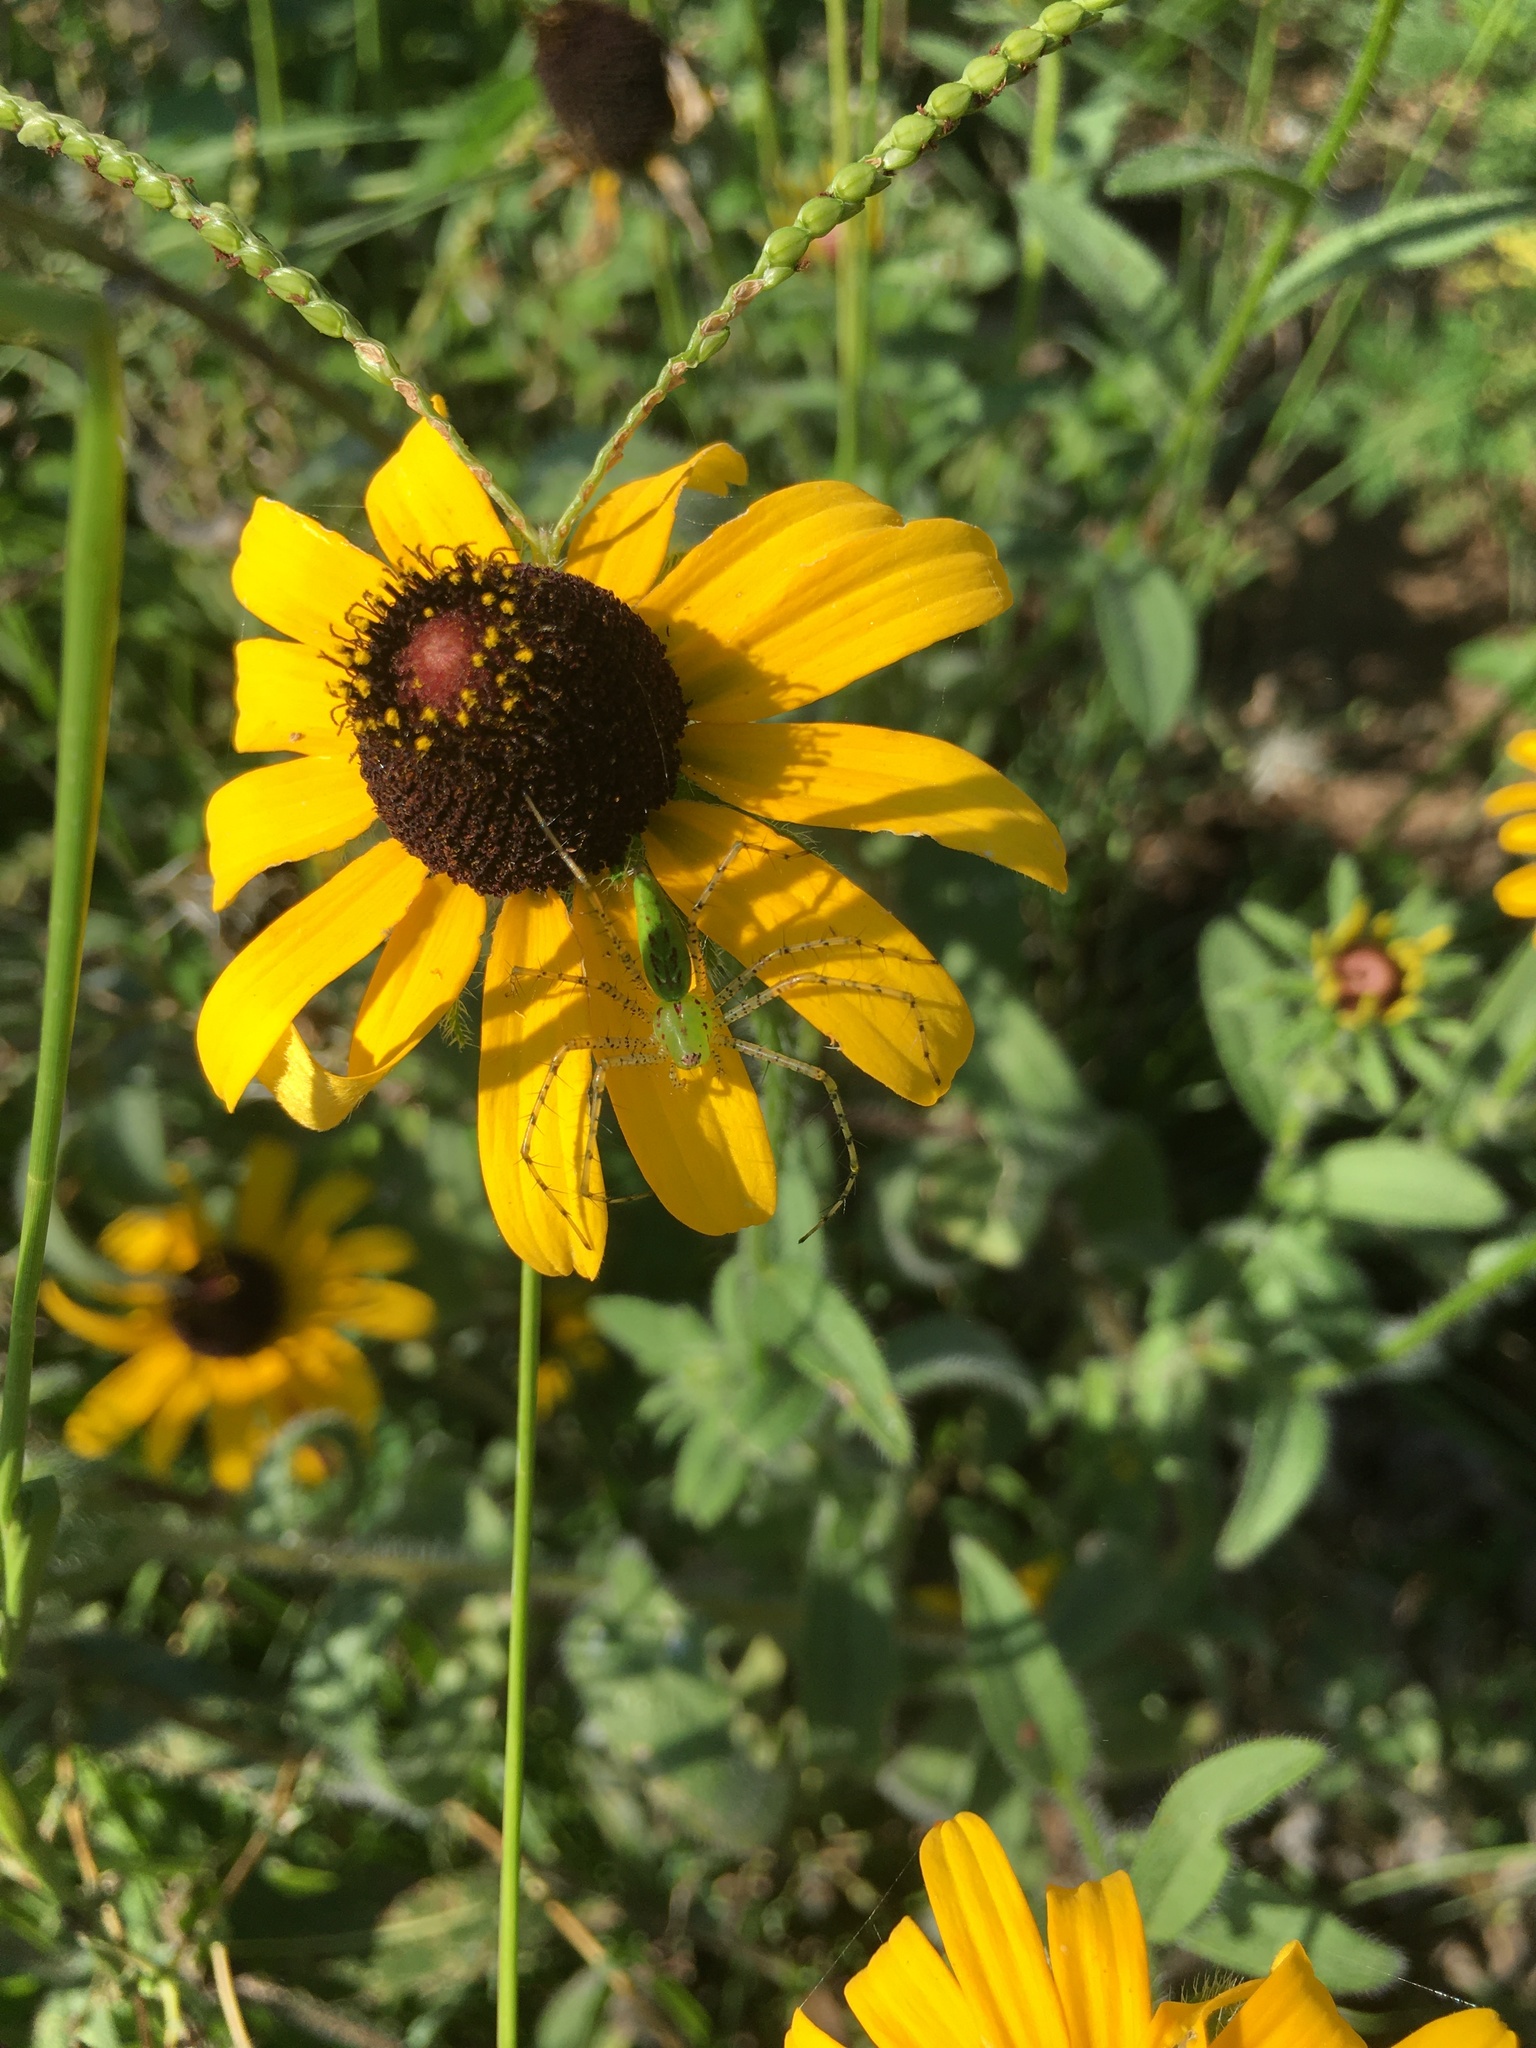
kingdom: Animalia
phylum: Arthropoda
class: Arachnida
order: Araneae
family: Oxyopidae
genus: Peucetia
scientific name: Peucetia viridans
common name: Lynx spiders
